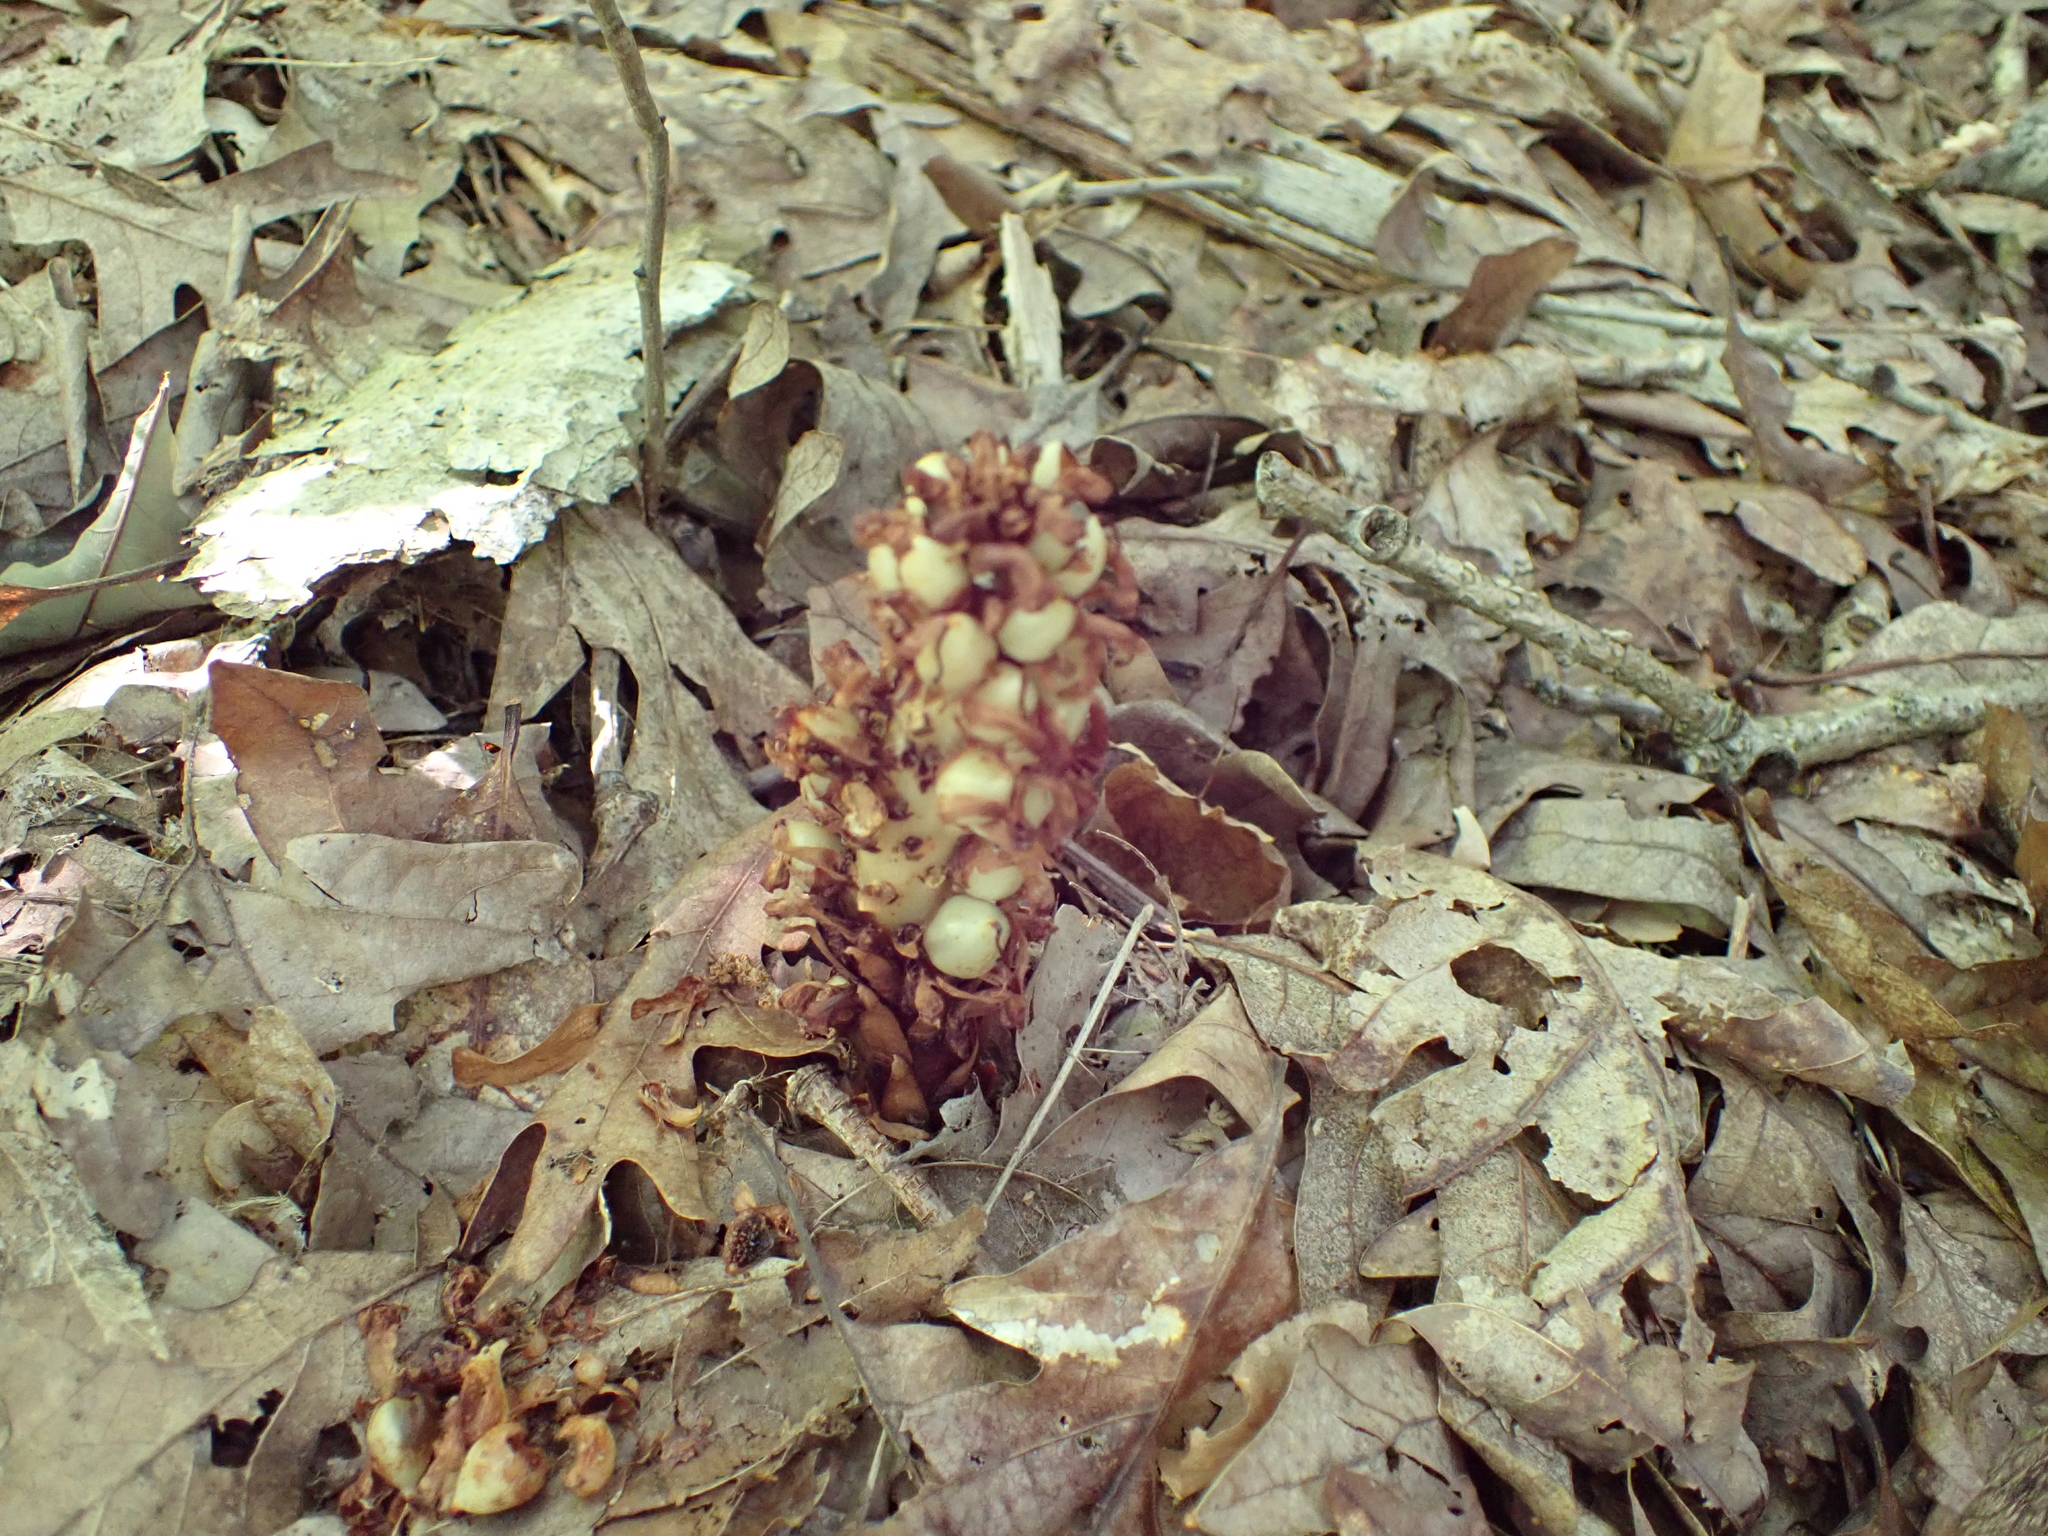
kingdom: Plantae
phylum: Tracheophyta
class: Magnoliopsida
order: Lamiales
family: Orobanchaceae
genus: Conopholis
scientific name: Conopholis americana
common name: American cancer-root
